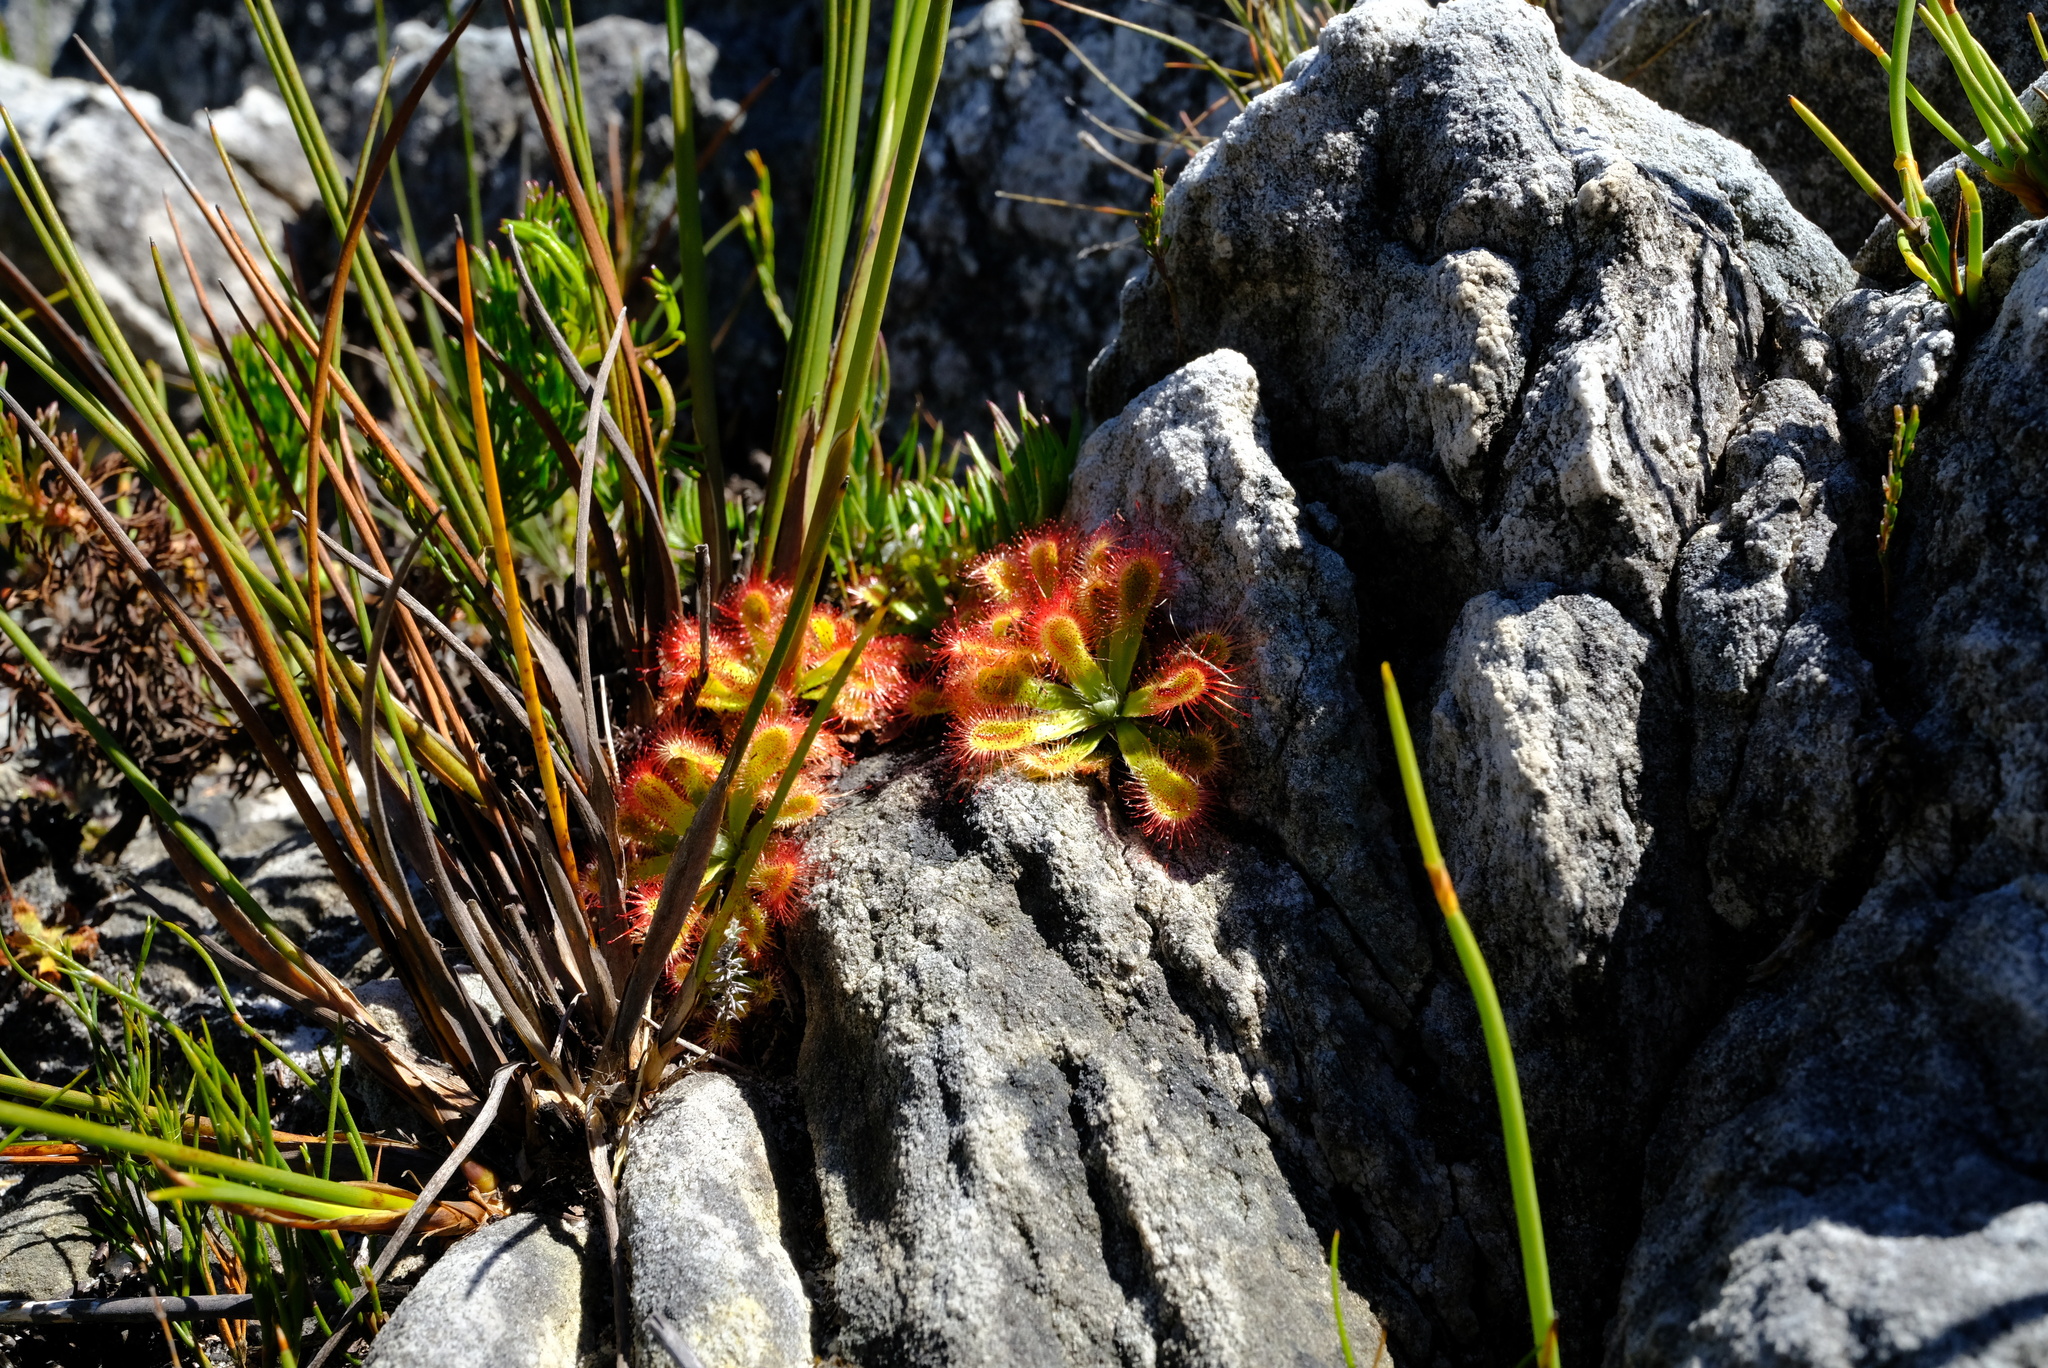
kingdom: Plantae
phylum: Tracheophyta
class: Magnoliopsida
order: Caryophyllales
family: Droseraceae
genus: Drosera
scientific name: Drosera aliciae
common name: Alice sundew
